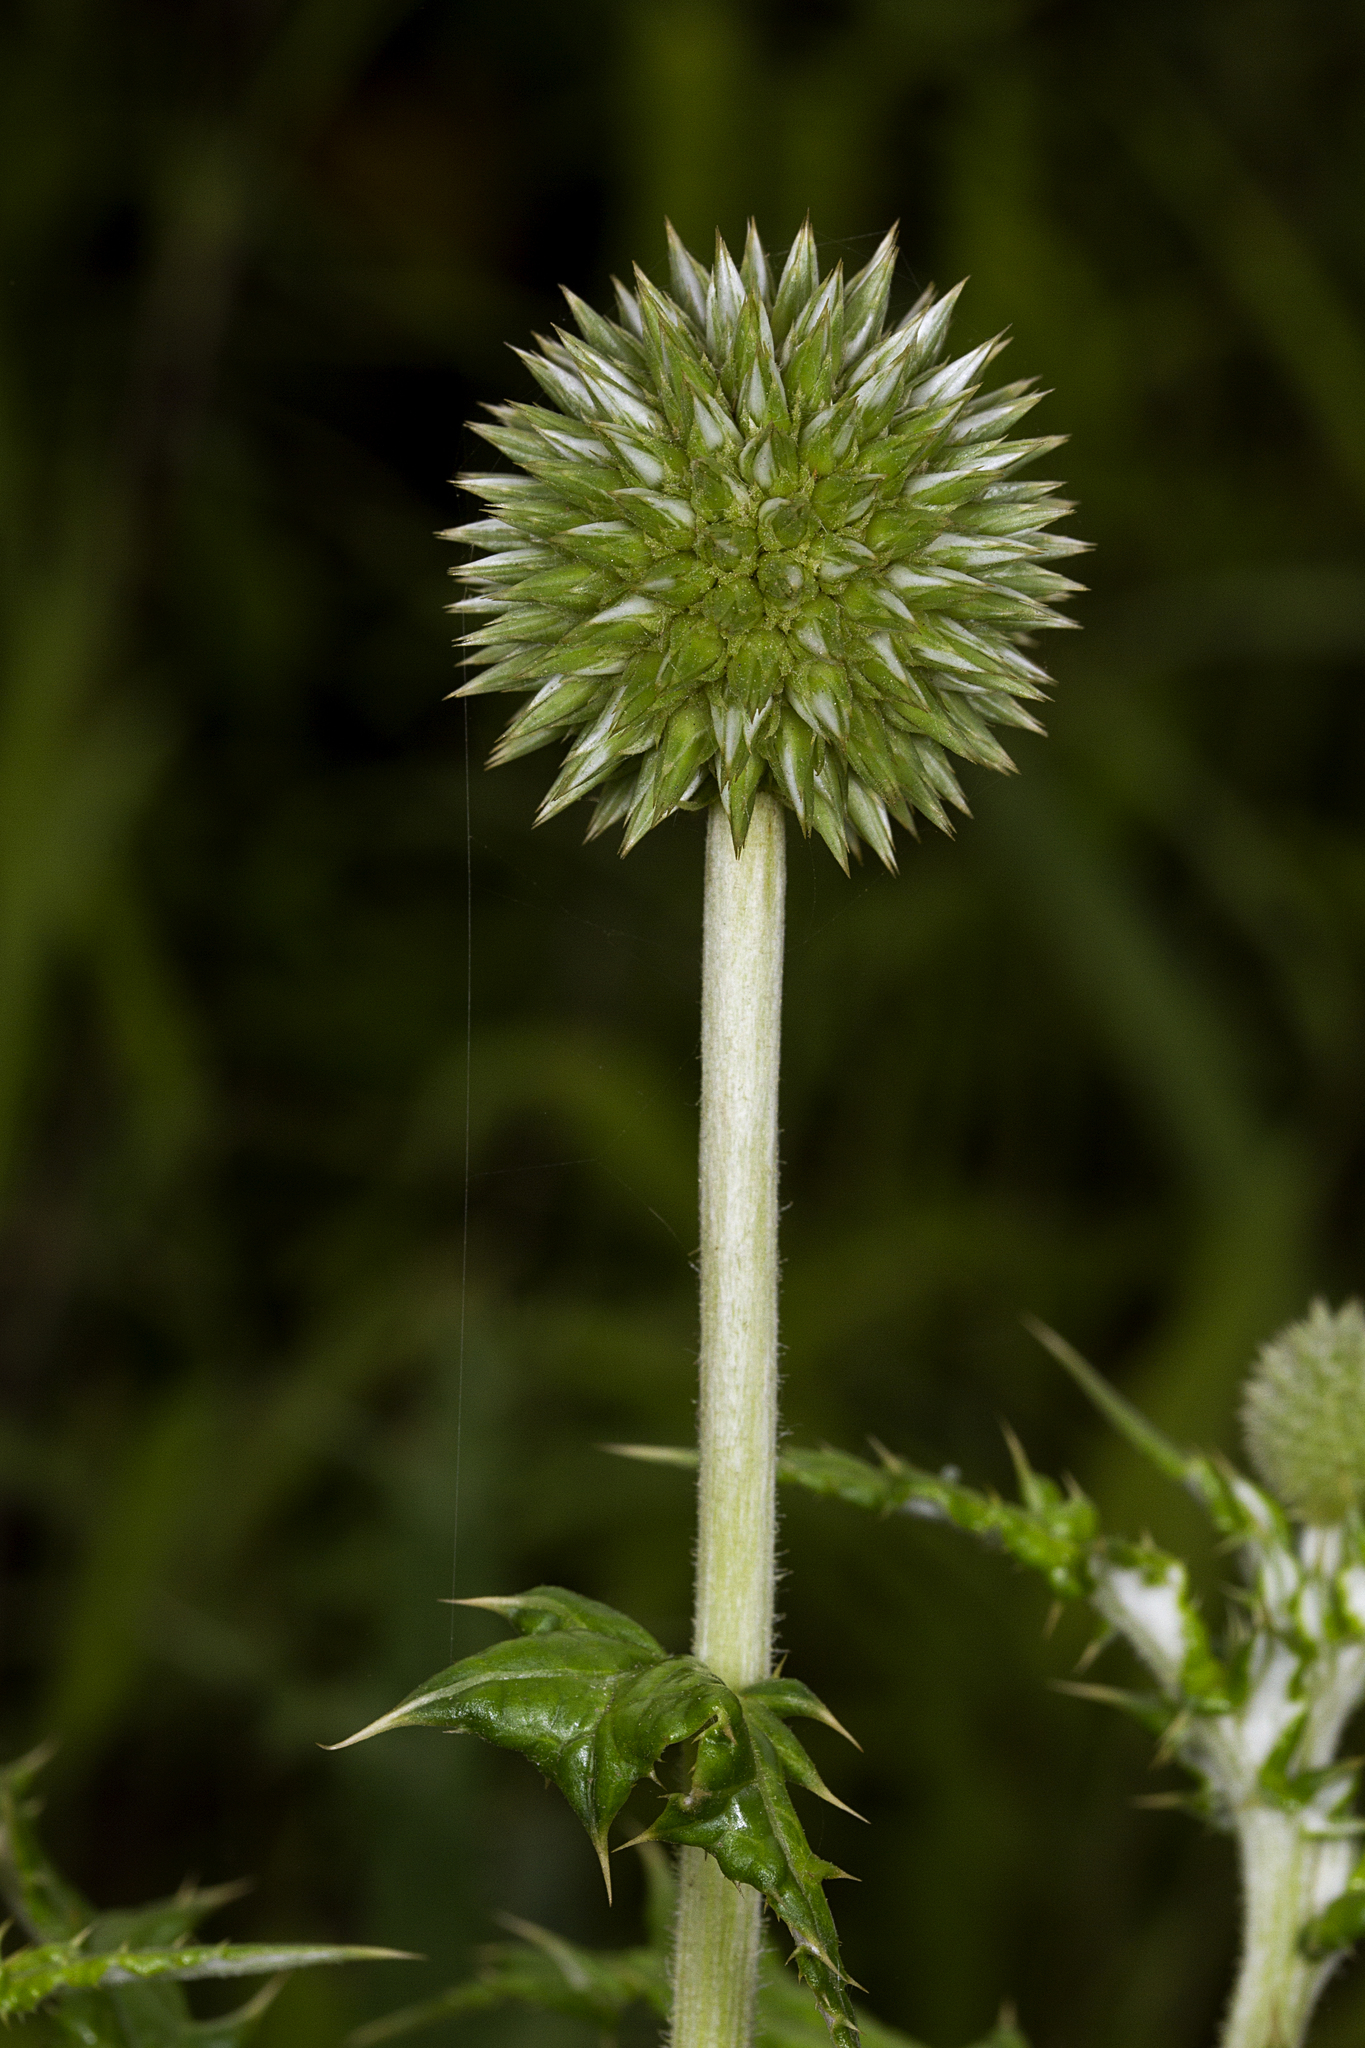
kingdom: Plantae
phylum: Tracheophyta
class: Magnoliopsida
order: Asterales
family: Asteraceae
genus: Echinops
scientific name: Echinops sahyadricus
